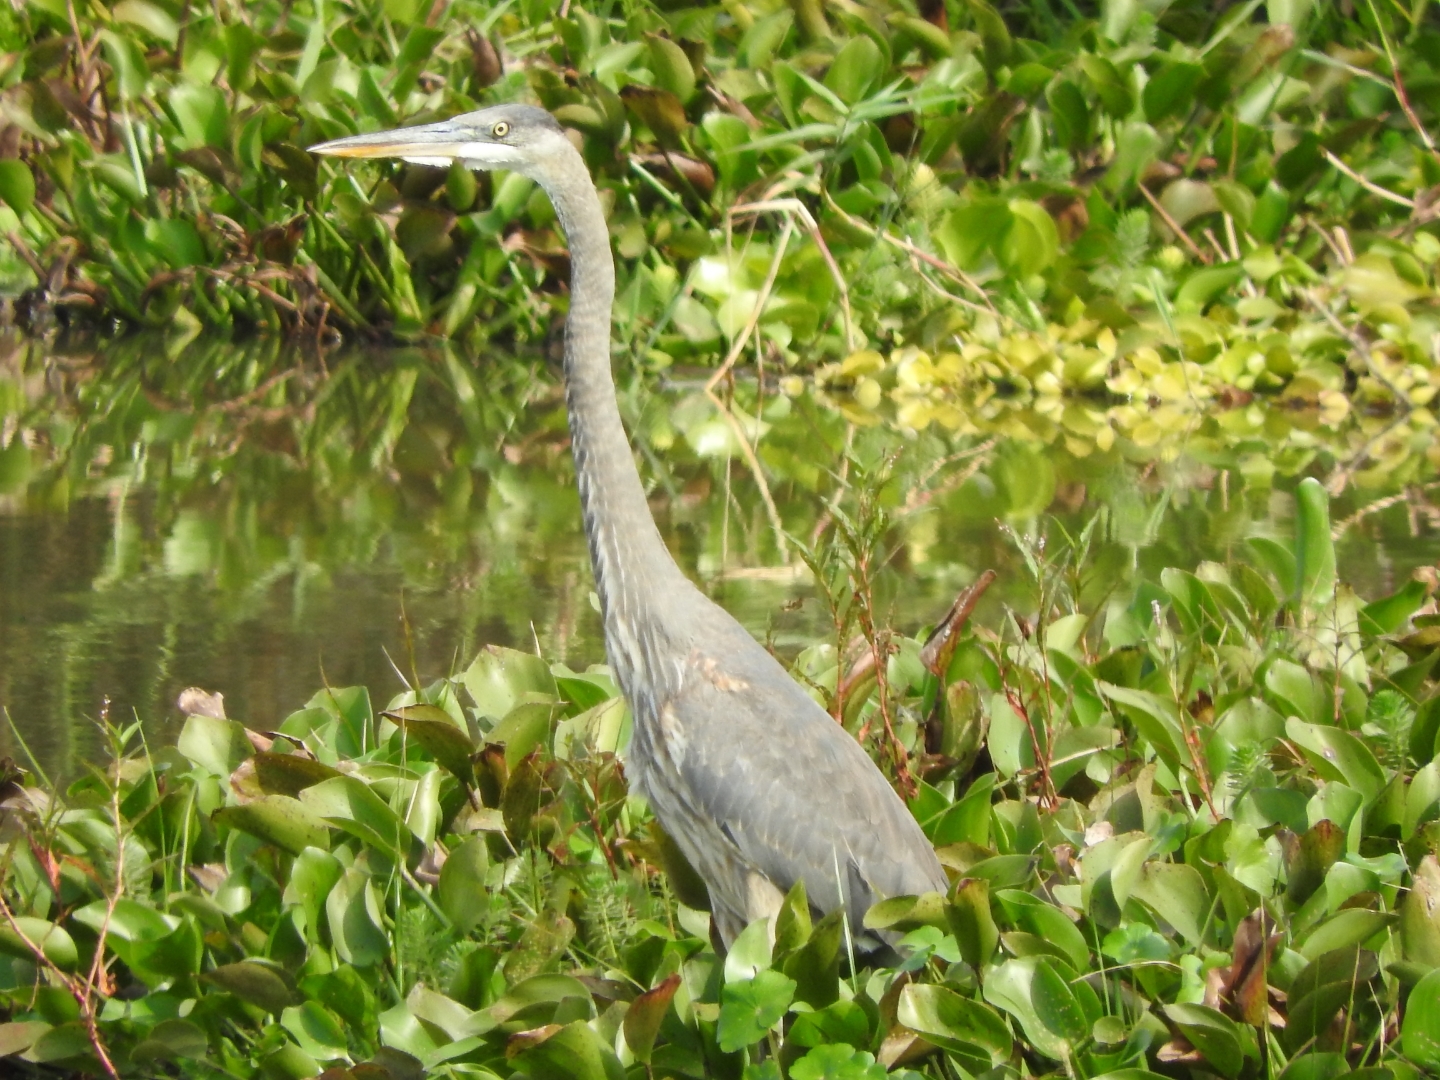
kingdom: Animalia
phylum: Chordata
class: Aves
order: Pelecaniformes
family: Ardeidae
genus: Ardea
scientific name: Ardea herodias
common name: Great blue heron
